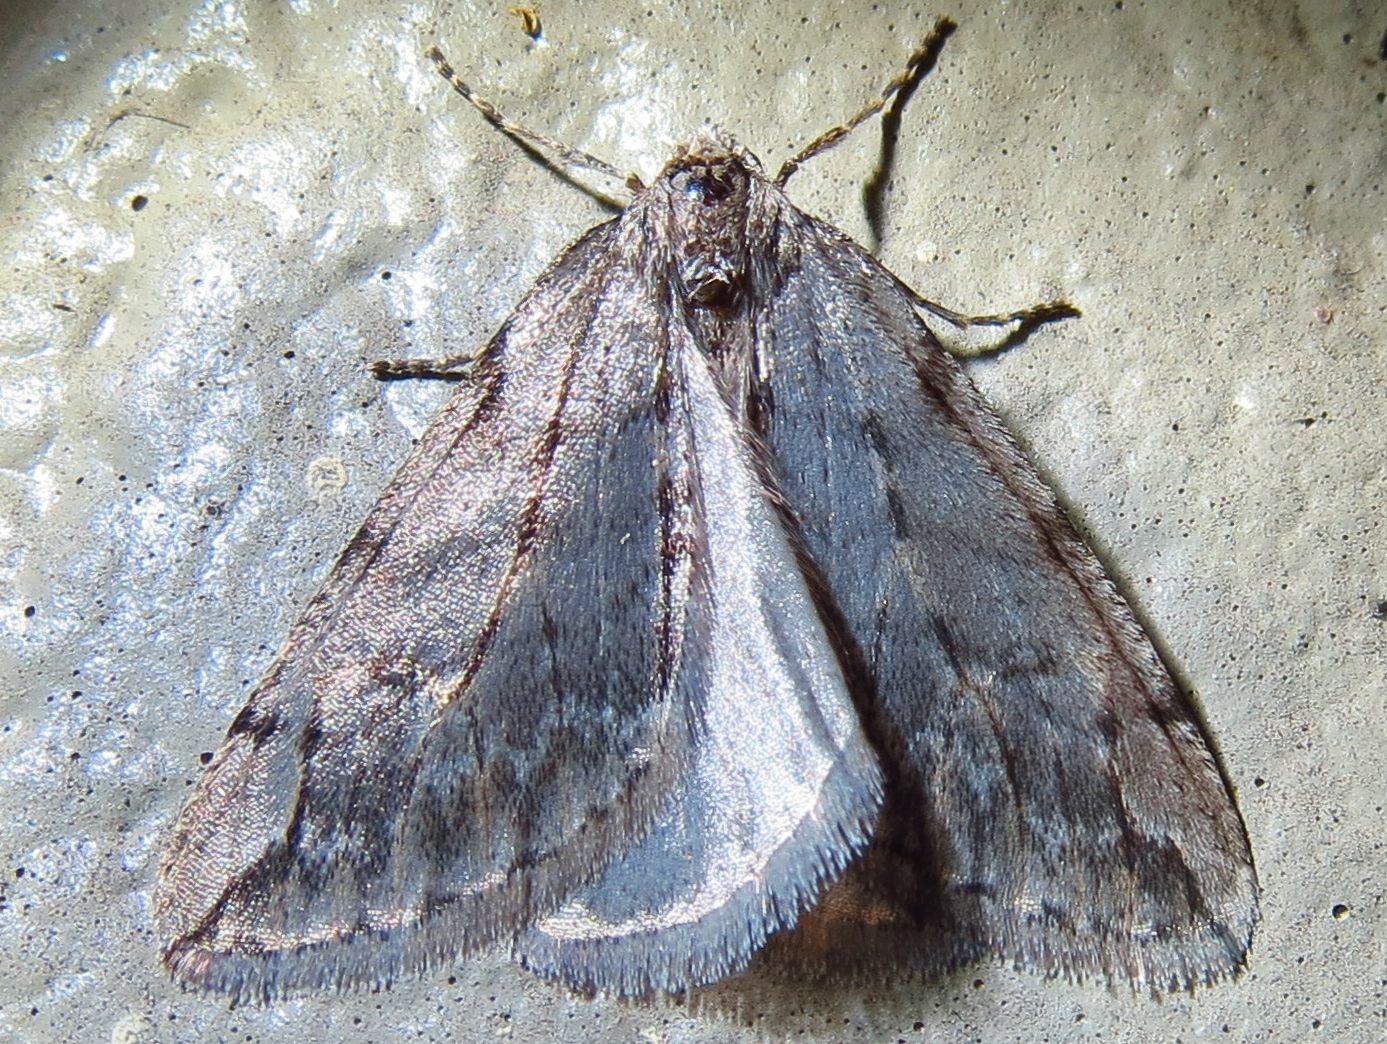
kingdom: Animalia
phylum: Arthropoda
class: Insecta
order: Lepidoptera
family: Geometridae
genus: Paleacrita
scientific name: Paleacrita vernata
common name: Spring cankerworm
